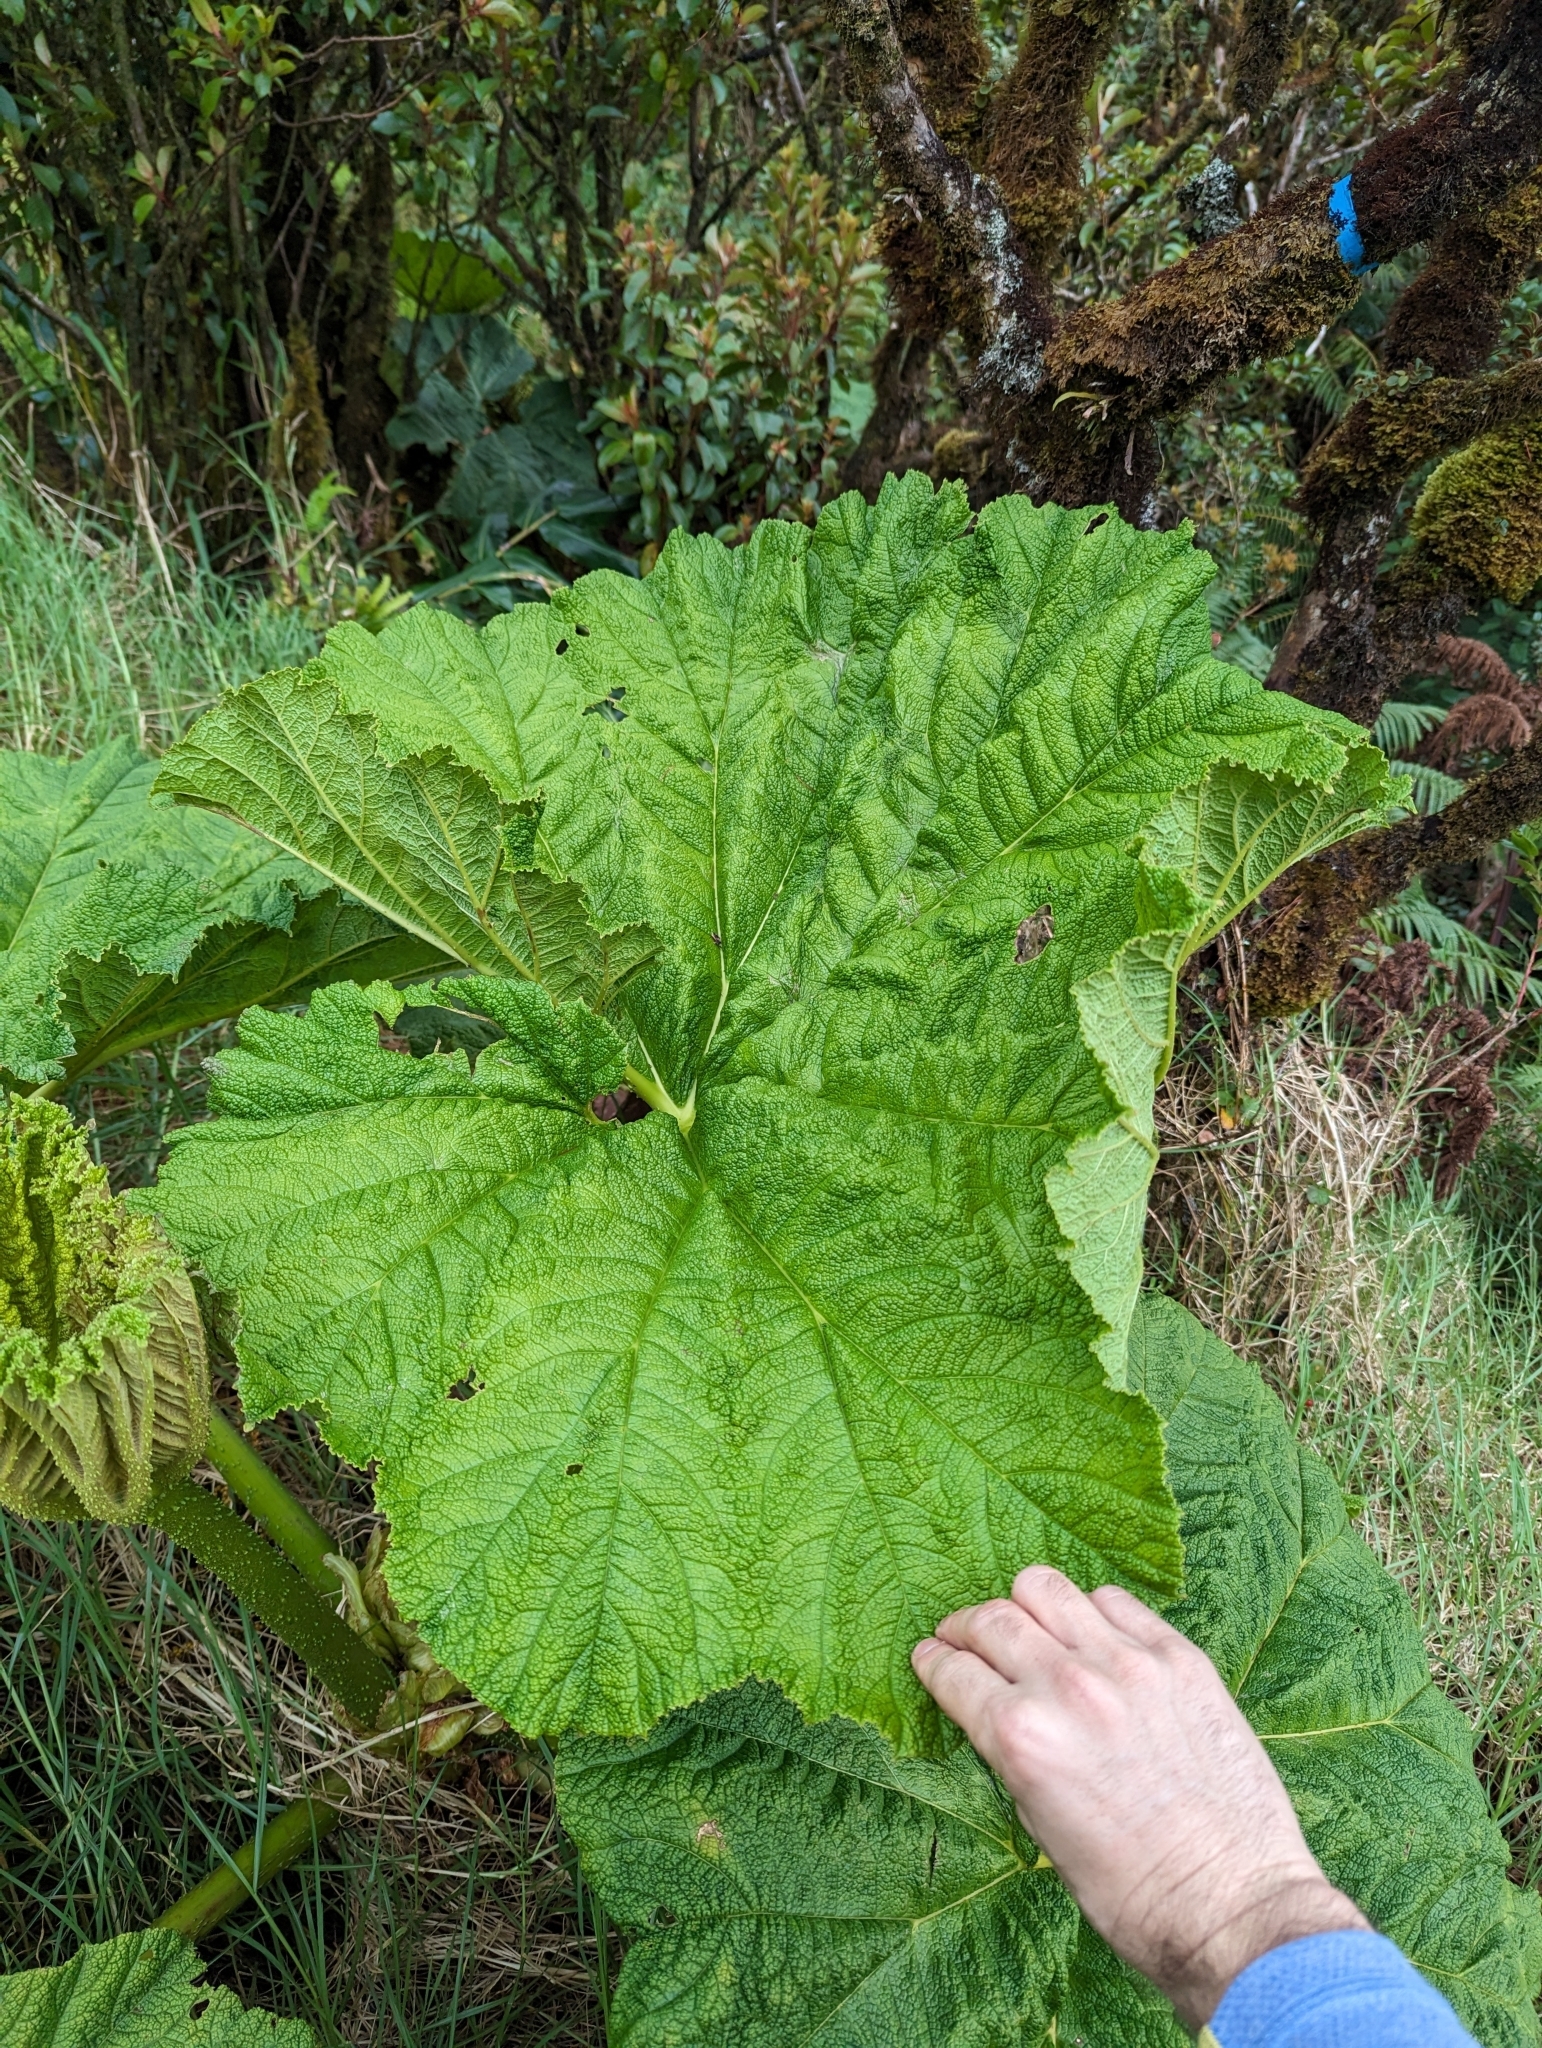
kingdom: Plantae
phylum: Tracheophyta
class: Magnoliopsida
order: Gunnerales
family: Gunneraceae
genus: Gunnera
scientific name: Gunnera petaloidea
